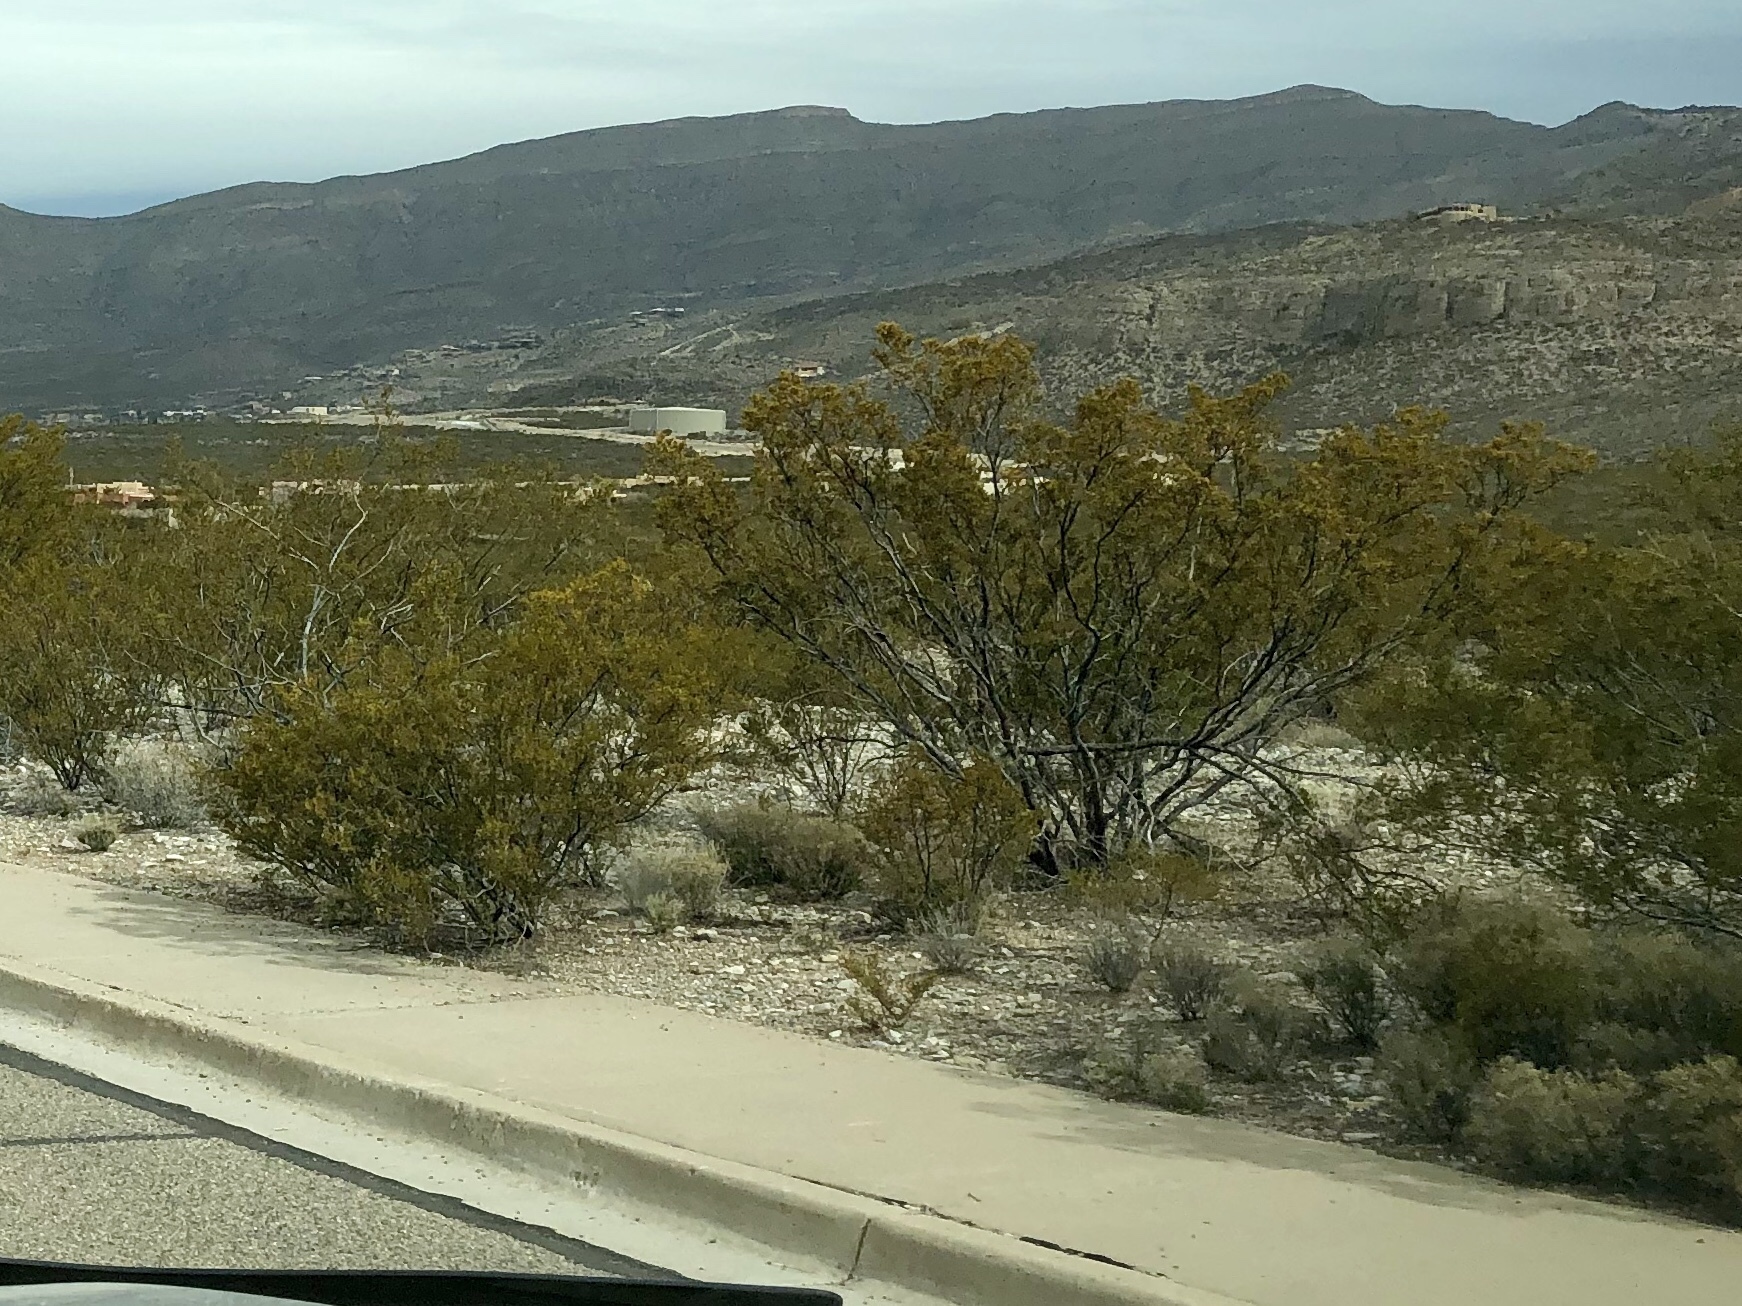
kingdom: Plantae
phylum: Tracheophyta
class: Magnoliopsida
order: Zygophyllales
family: Zygophyllaceae
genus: Larrea
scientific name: Larrea tridentata
